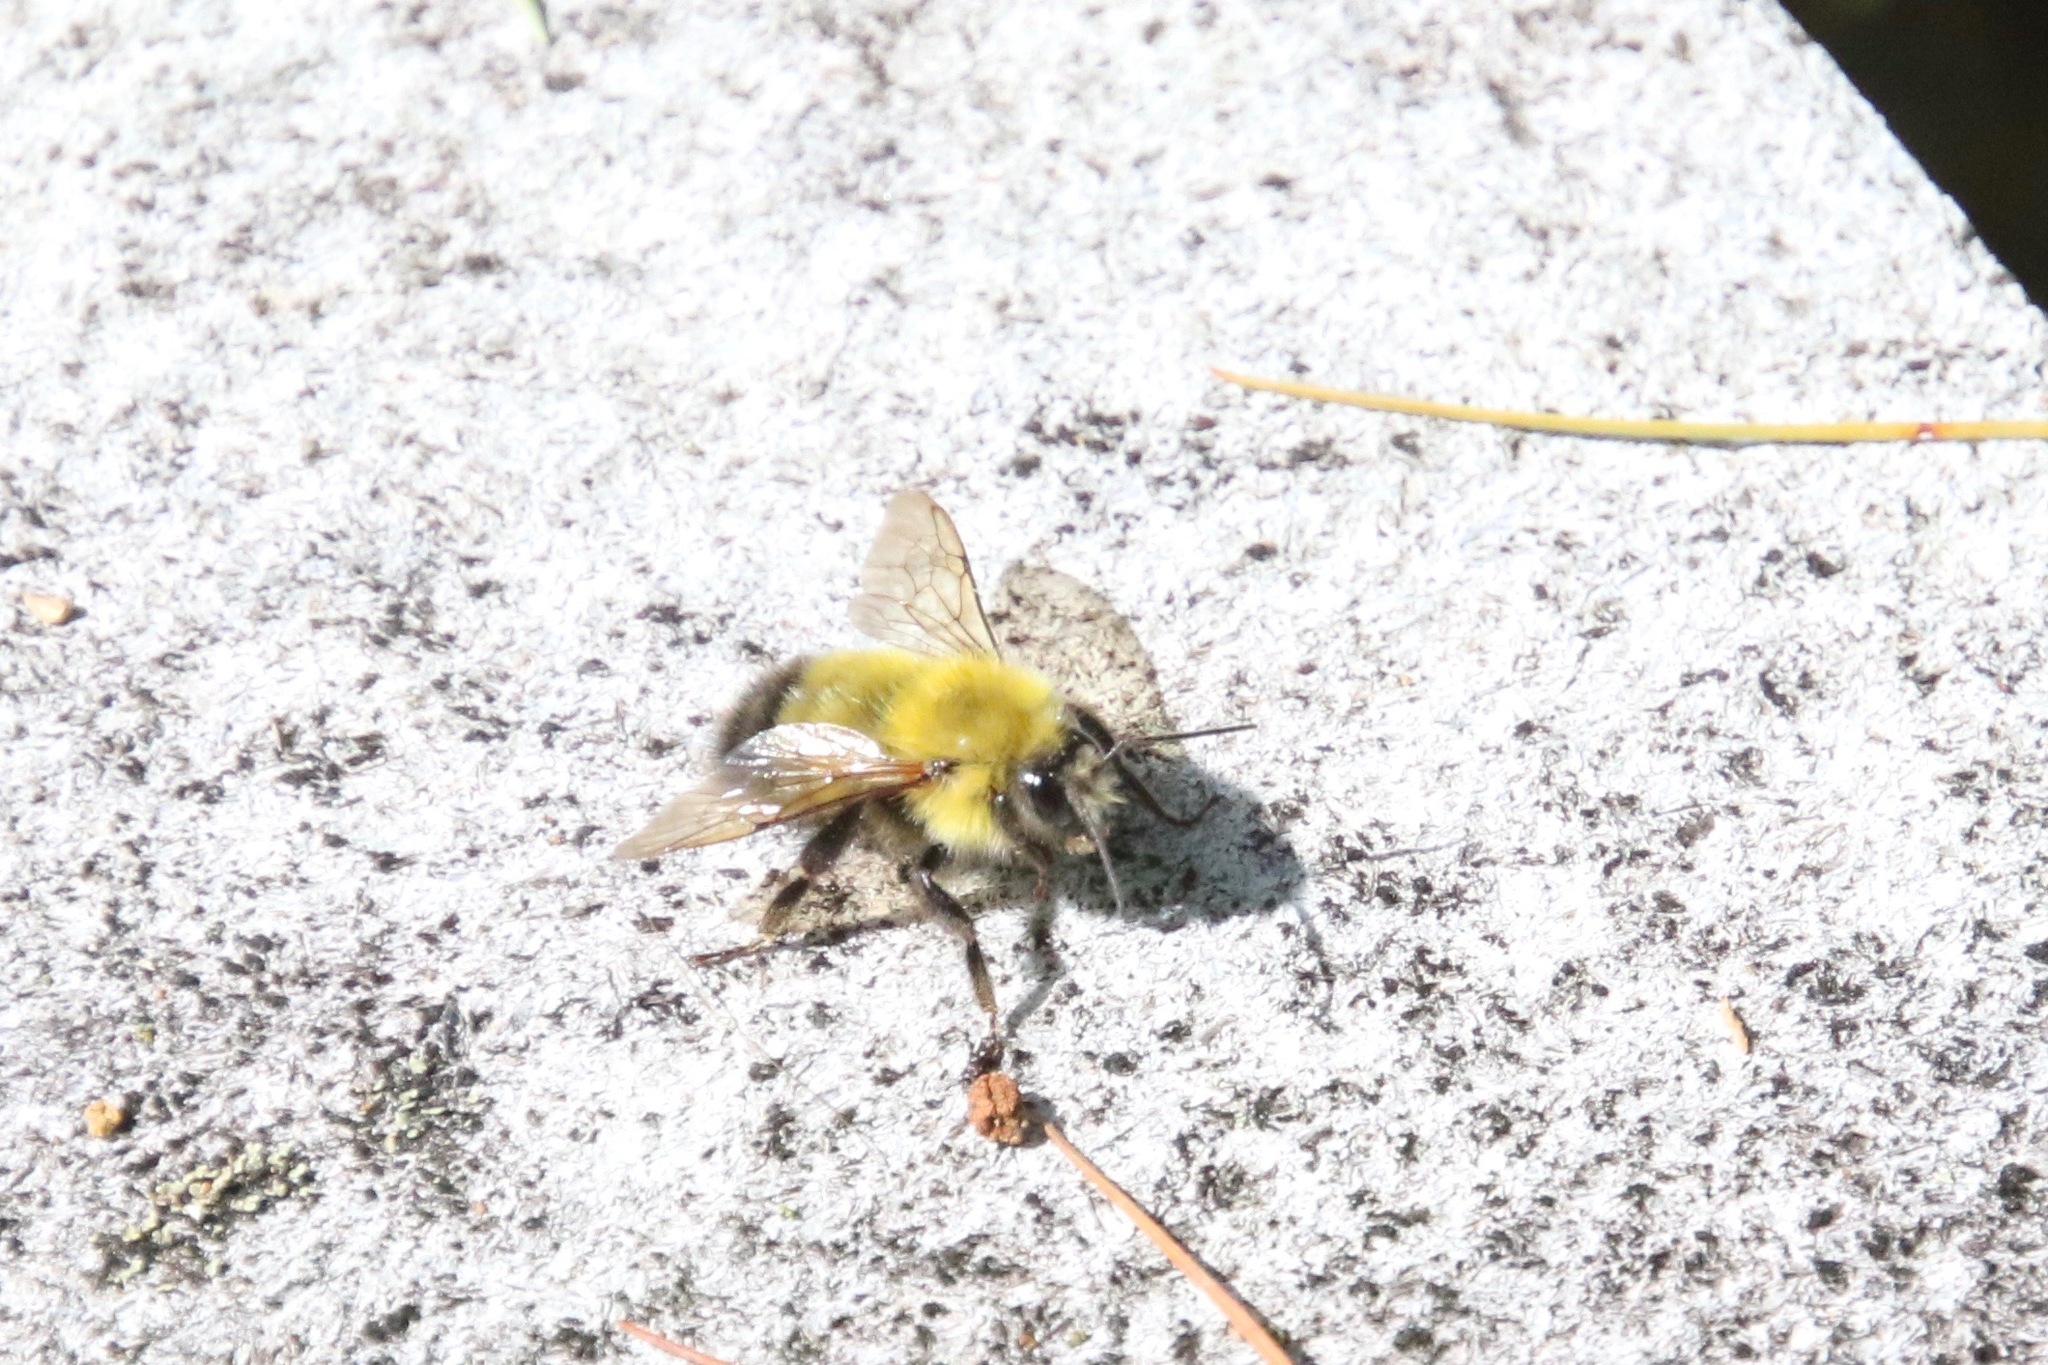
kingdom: Animalia
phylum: Arthropoda
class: Insecta
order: Hymenoptera
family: Apidae
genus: Bombus
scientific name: Bombus perplexus
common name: Confusing bumble bee
